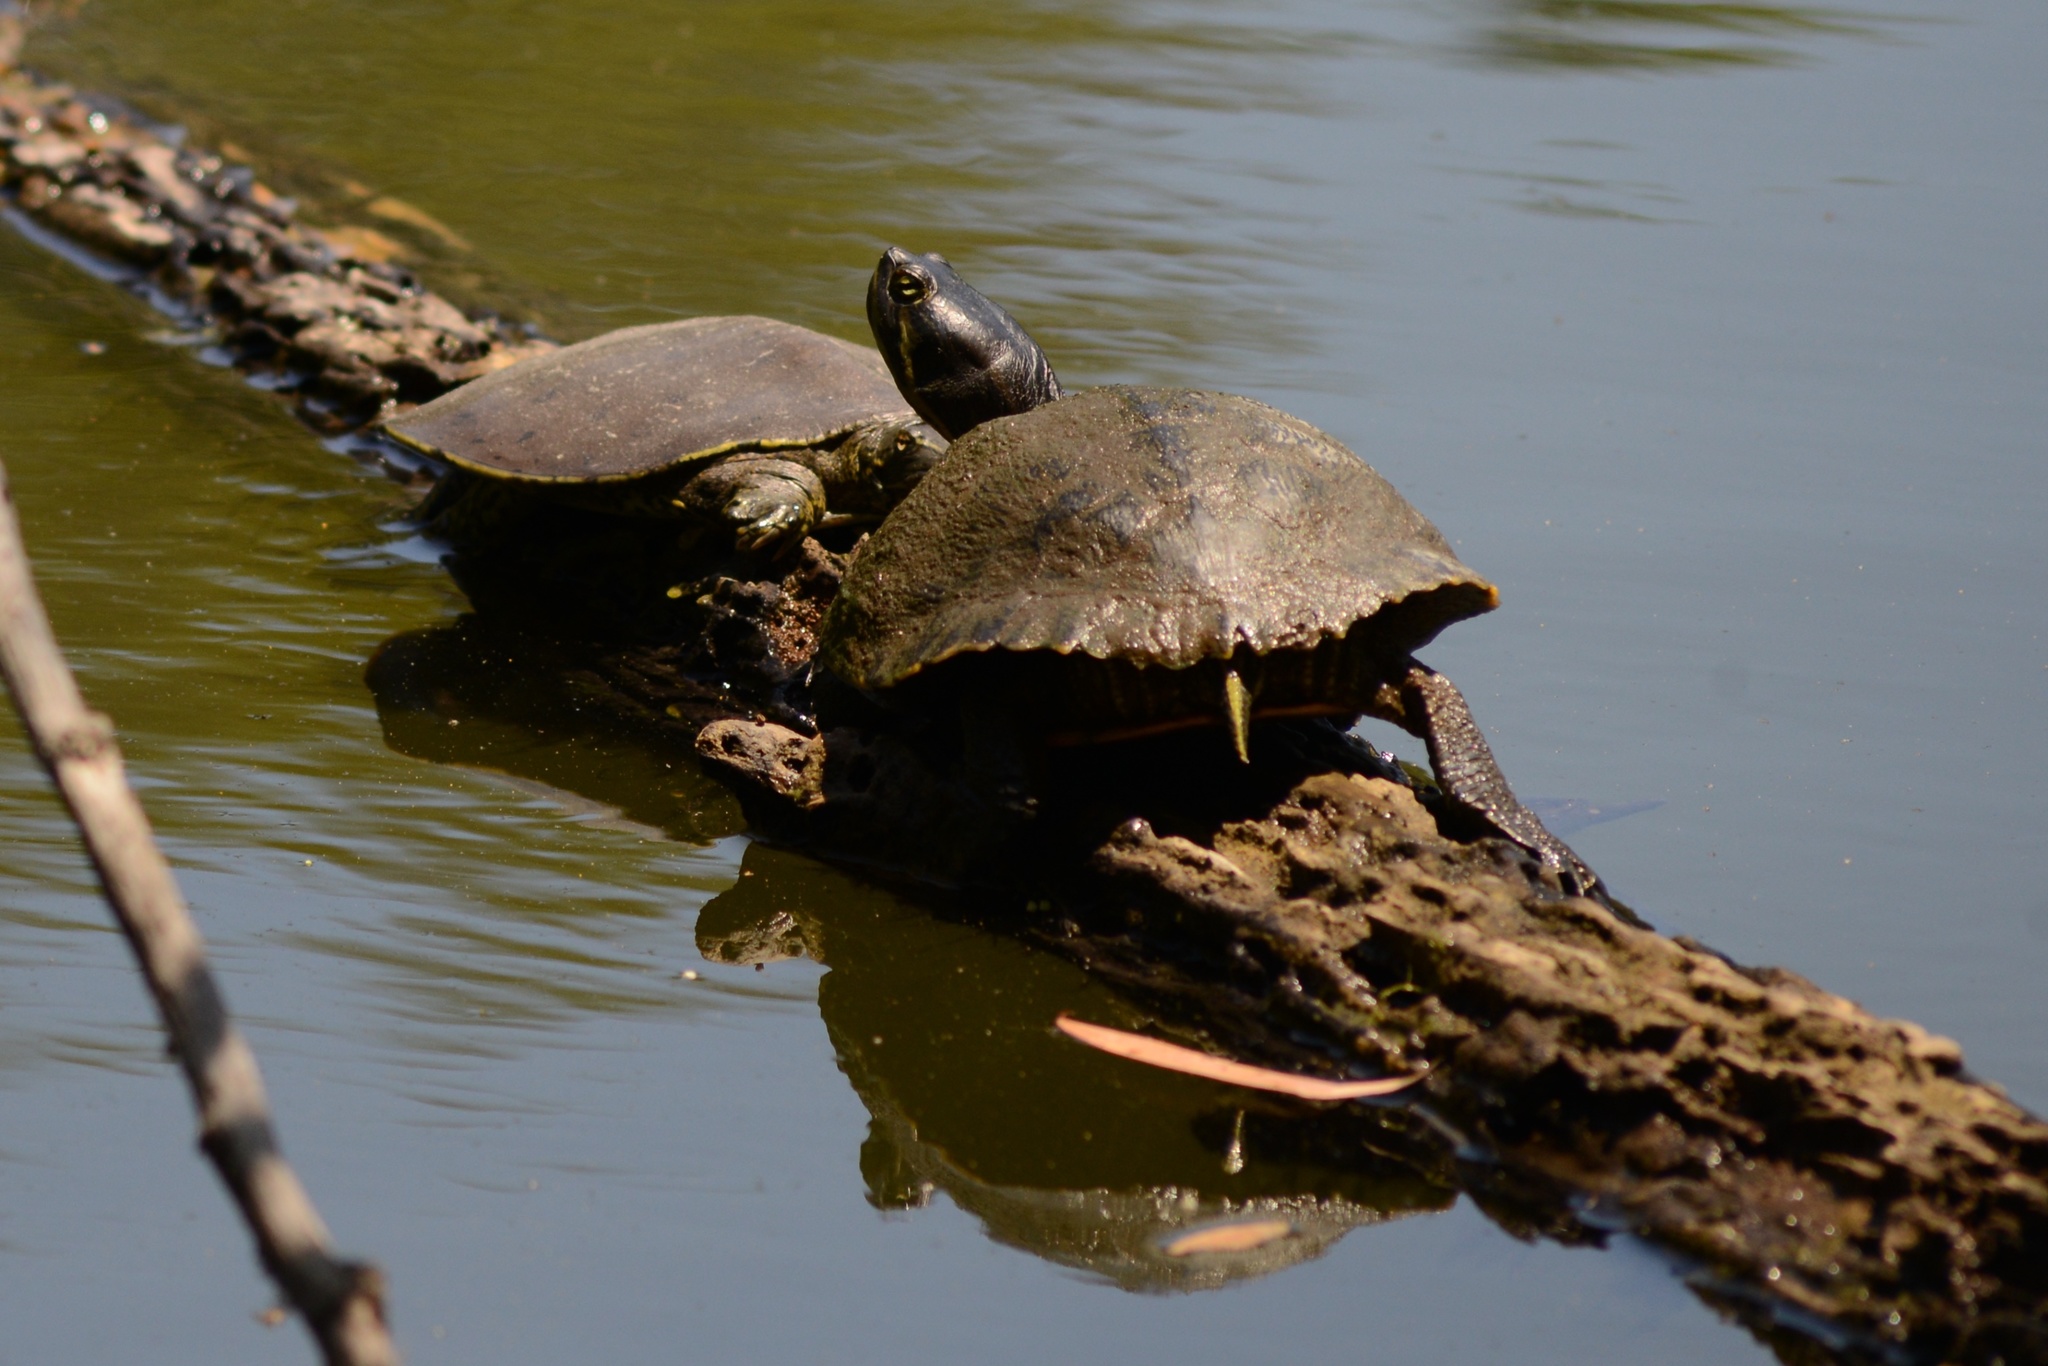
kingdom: Animalia
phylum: Chordata
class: Testudines
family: Trionychidae
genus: Apalone
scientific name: Apalone spinifera
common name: Spiny softshell turtle
